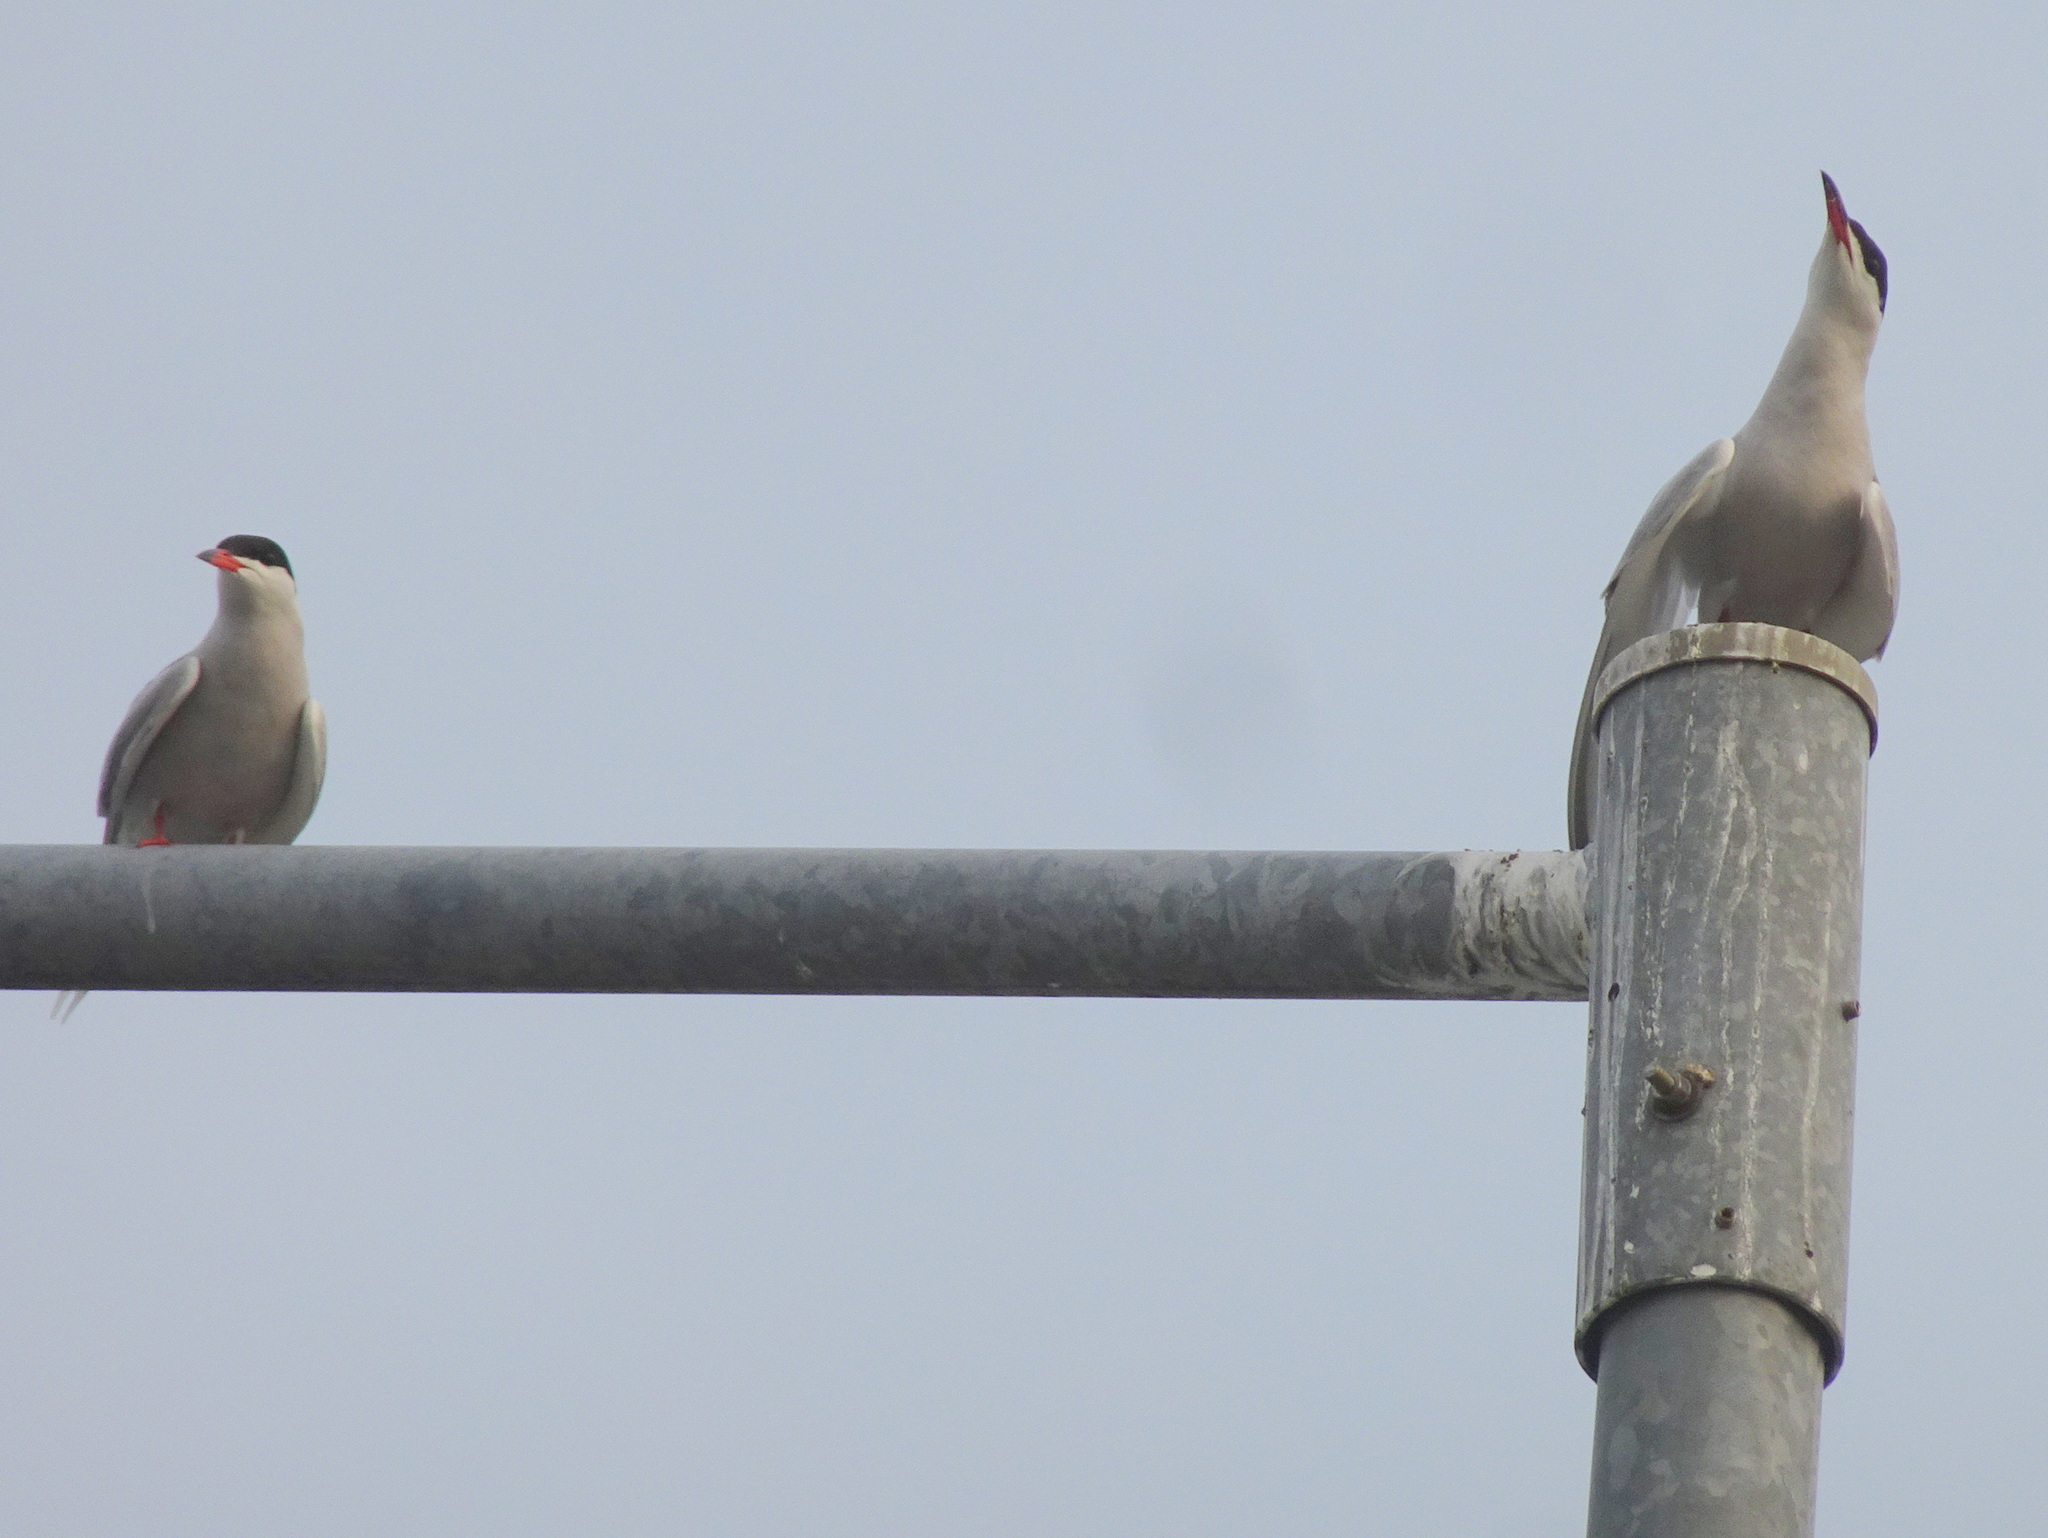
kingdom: Animalia
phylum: Chordata
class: Aves
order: Charadriiformes
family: Laridae
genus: Sterna
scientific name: Sterna hirundo
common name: Common tern
